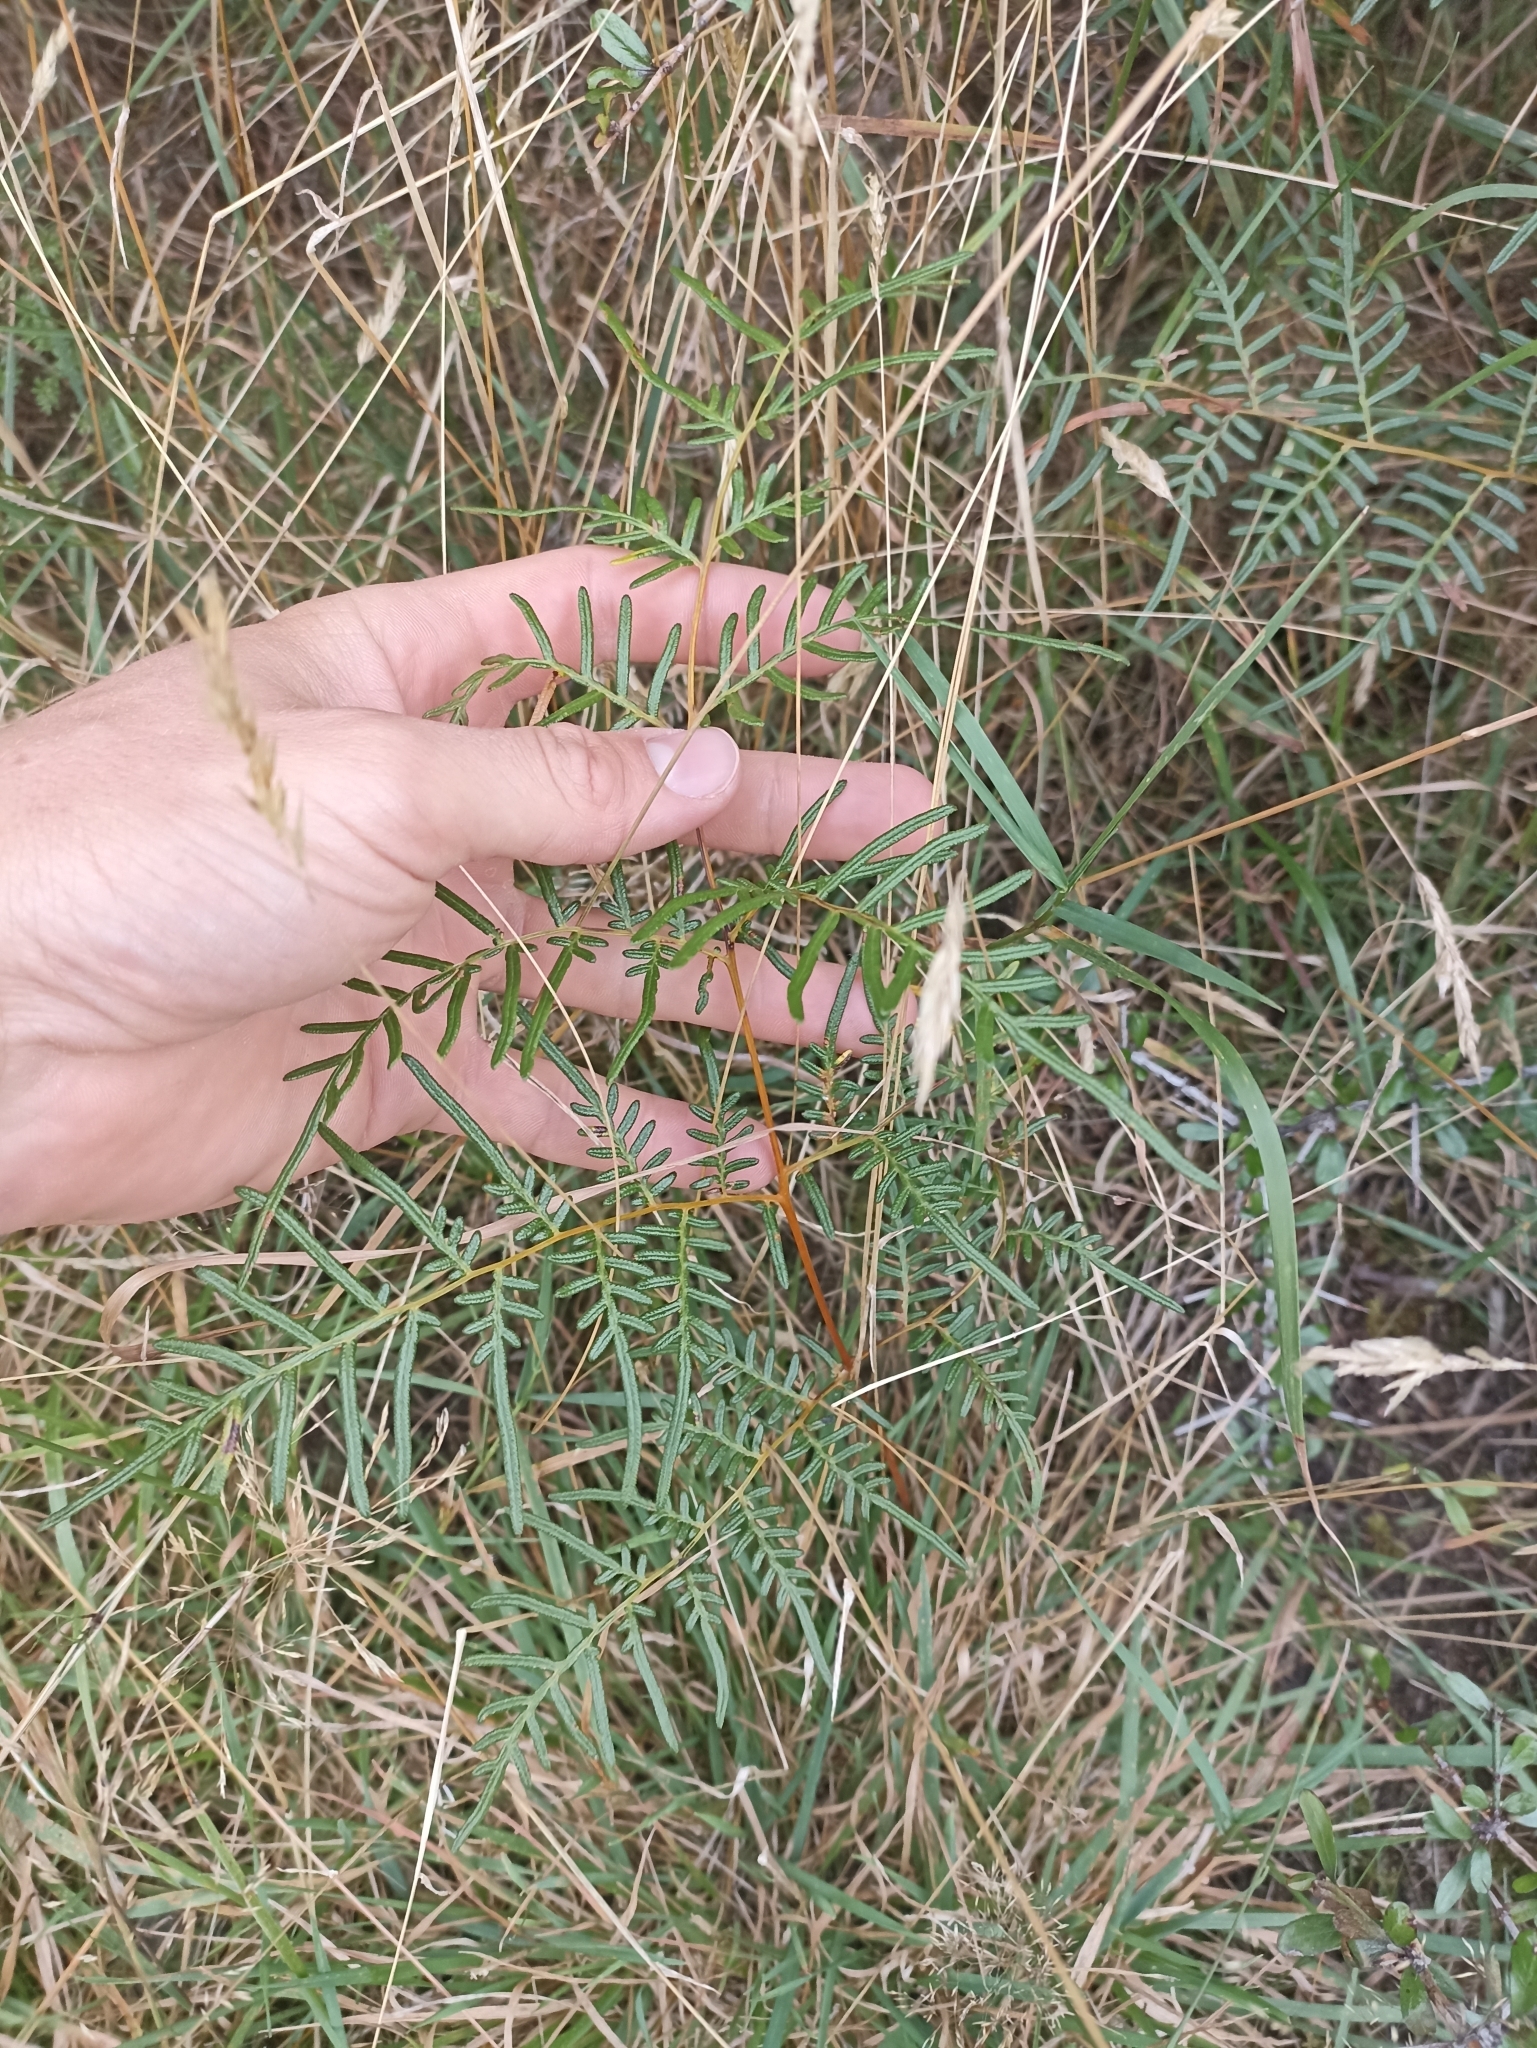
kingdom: Plantae
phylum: Tracheophyta
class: Polypodiopsida
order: Polypodiales
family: Dennstaedtiaceae
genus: Pteridium
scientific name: Pteridium esculentum
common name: Bracken fern
